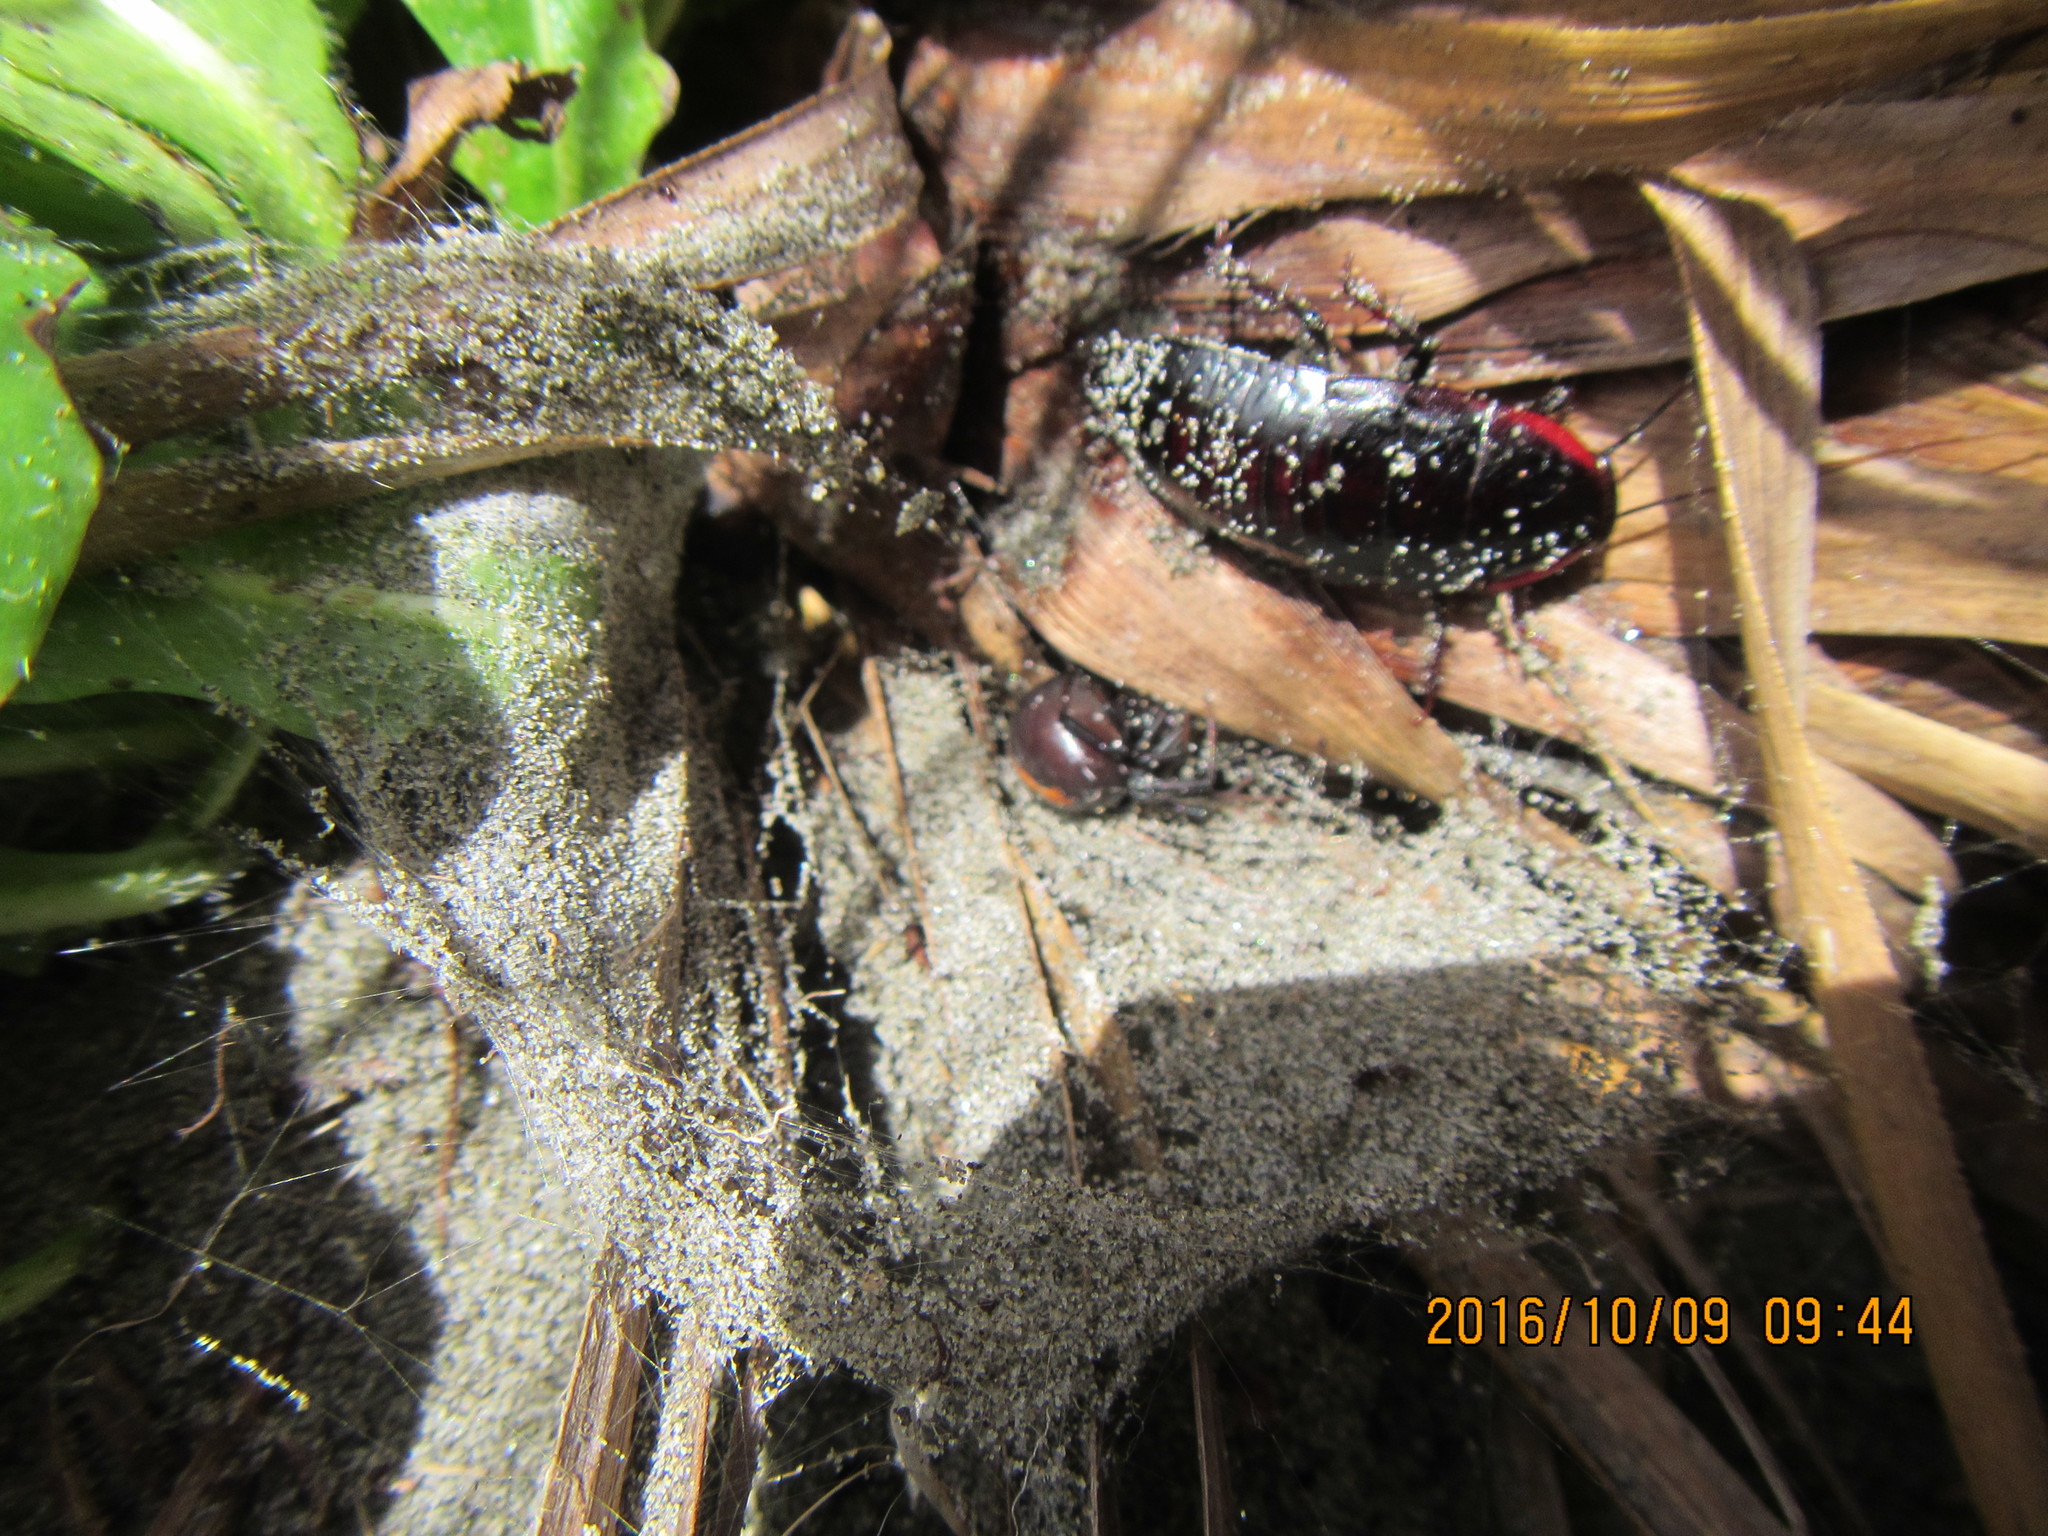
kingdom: Animalia
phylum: Arthropoda
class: Arachnida
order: Araneae
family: Theridiidae
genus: Latrodectus
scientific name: Latrodectus katipo
